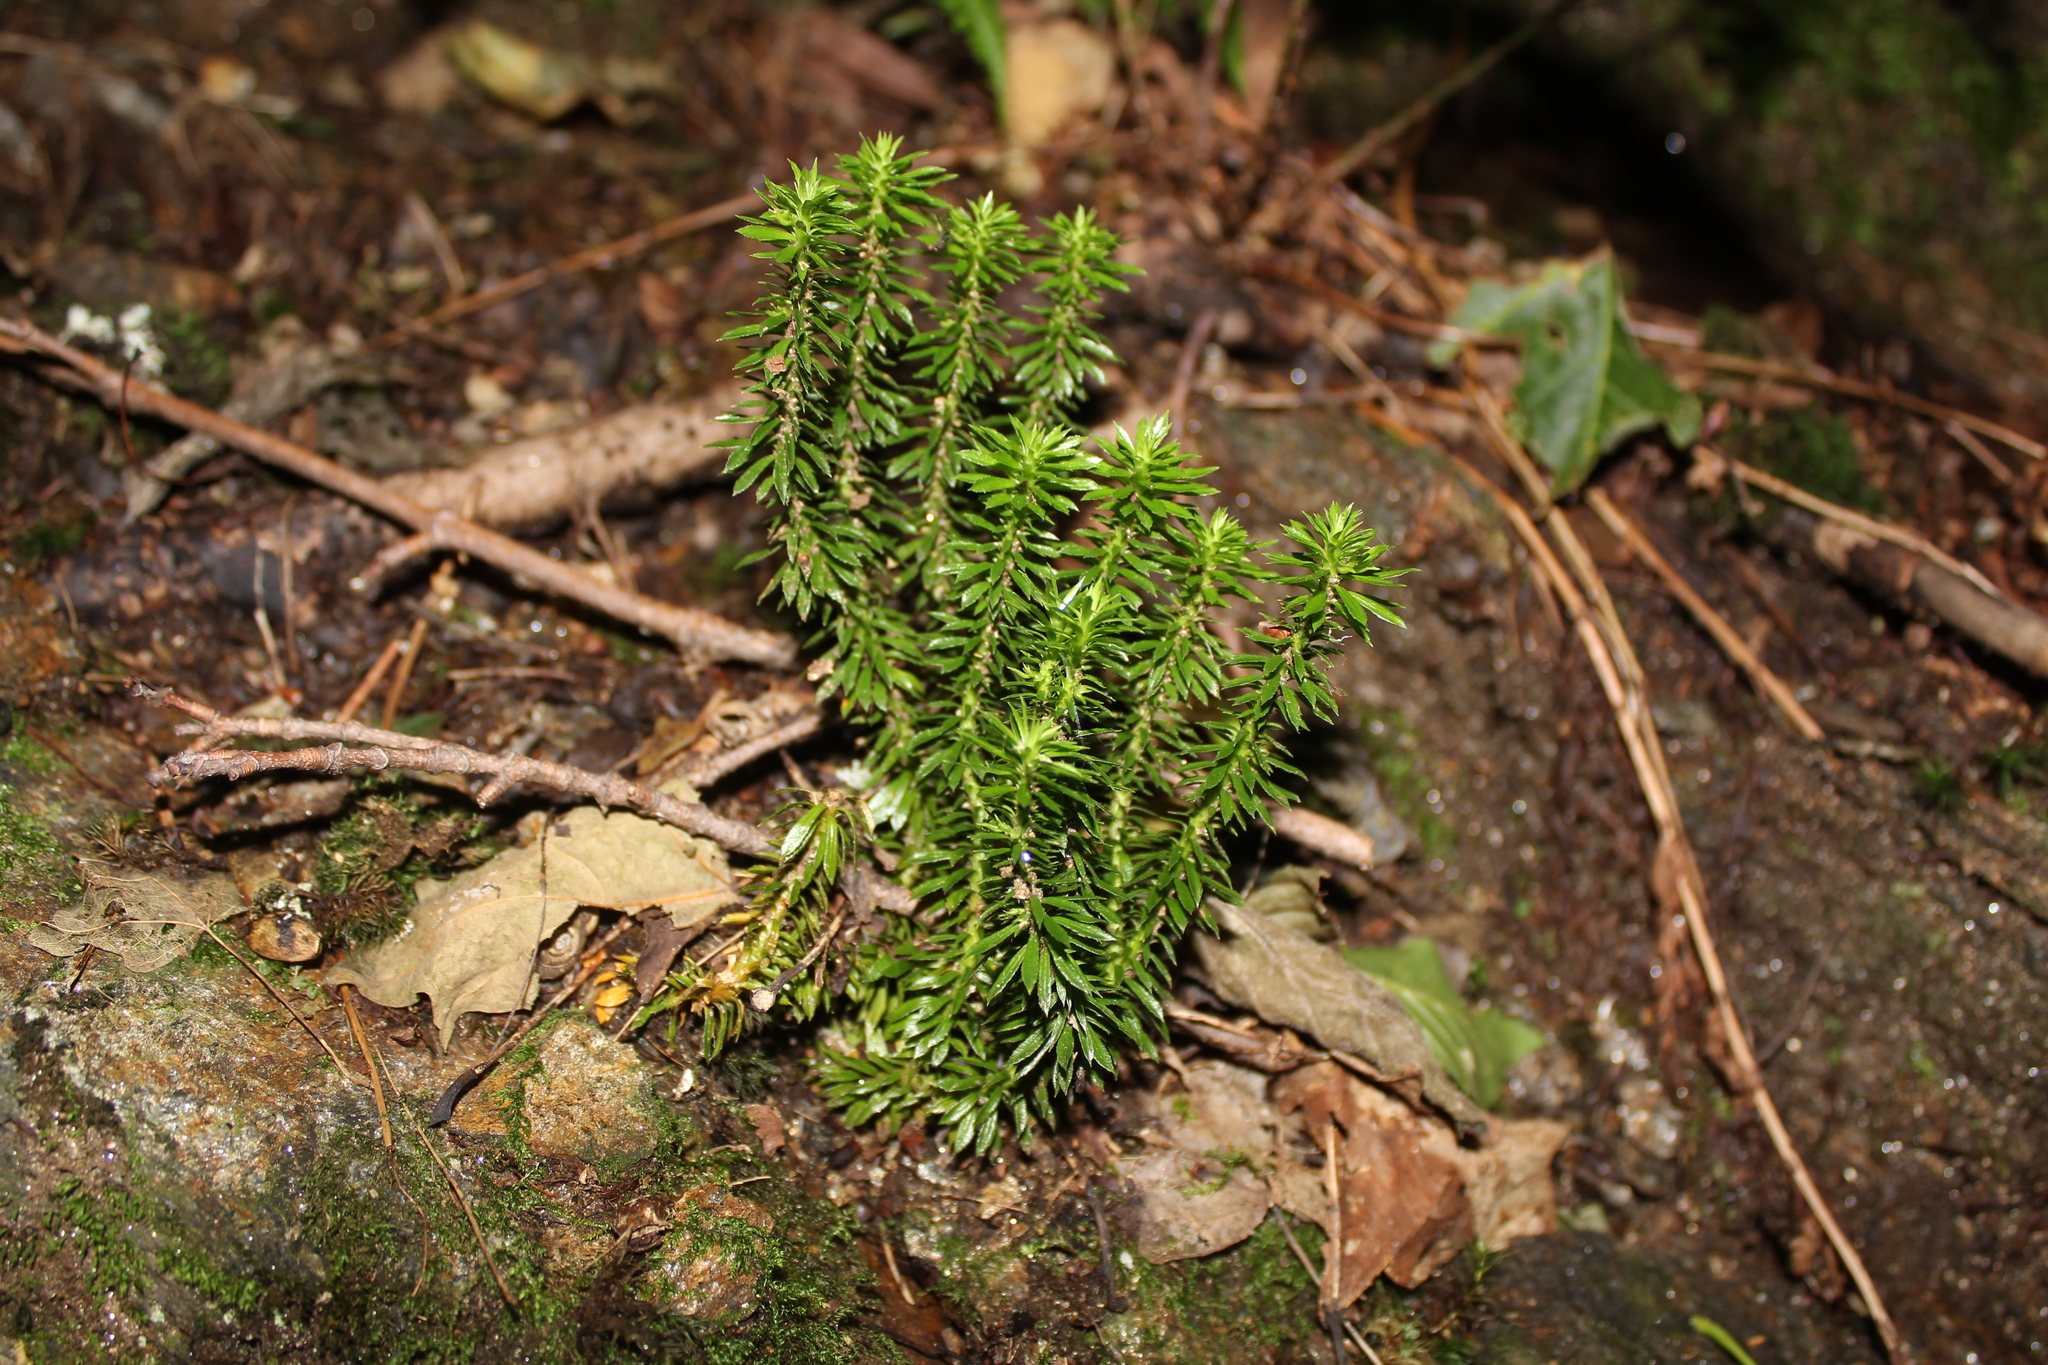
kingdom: Plantae
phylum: Tracheophyta
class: Lycopodiopsida
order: Lycopodiales
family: Lycopodiaceae
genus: Huperzia
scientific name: Huperzia lucidula
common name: Shining clubmoss
